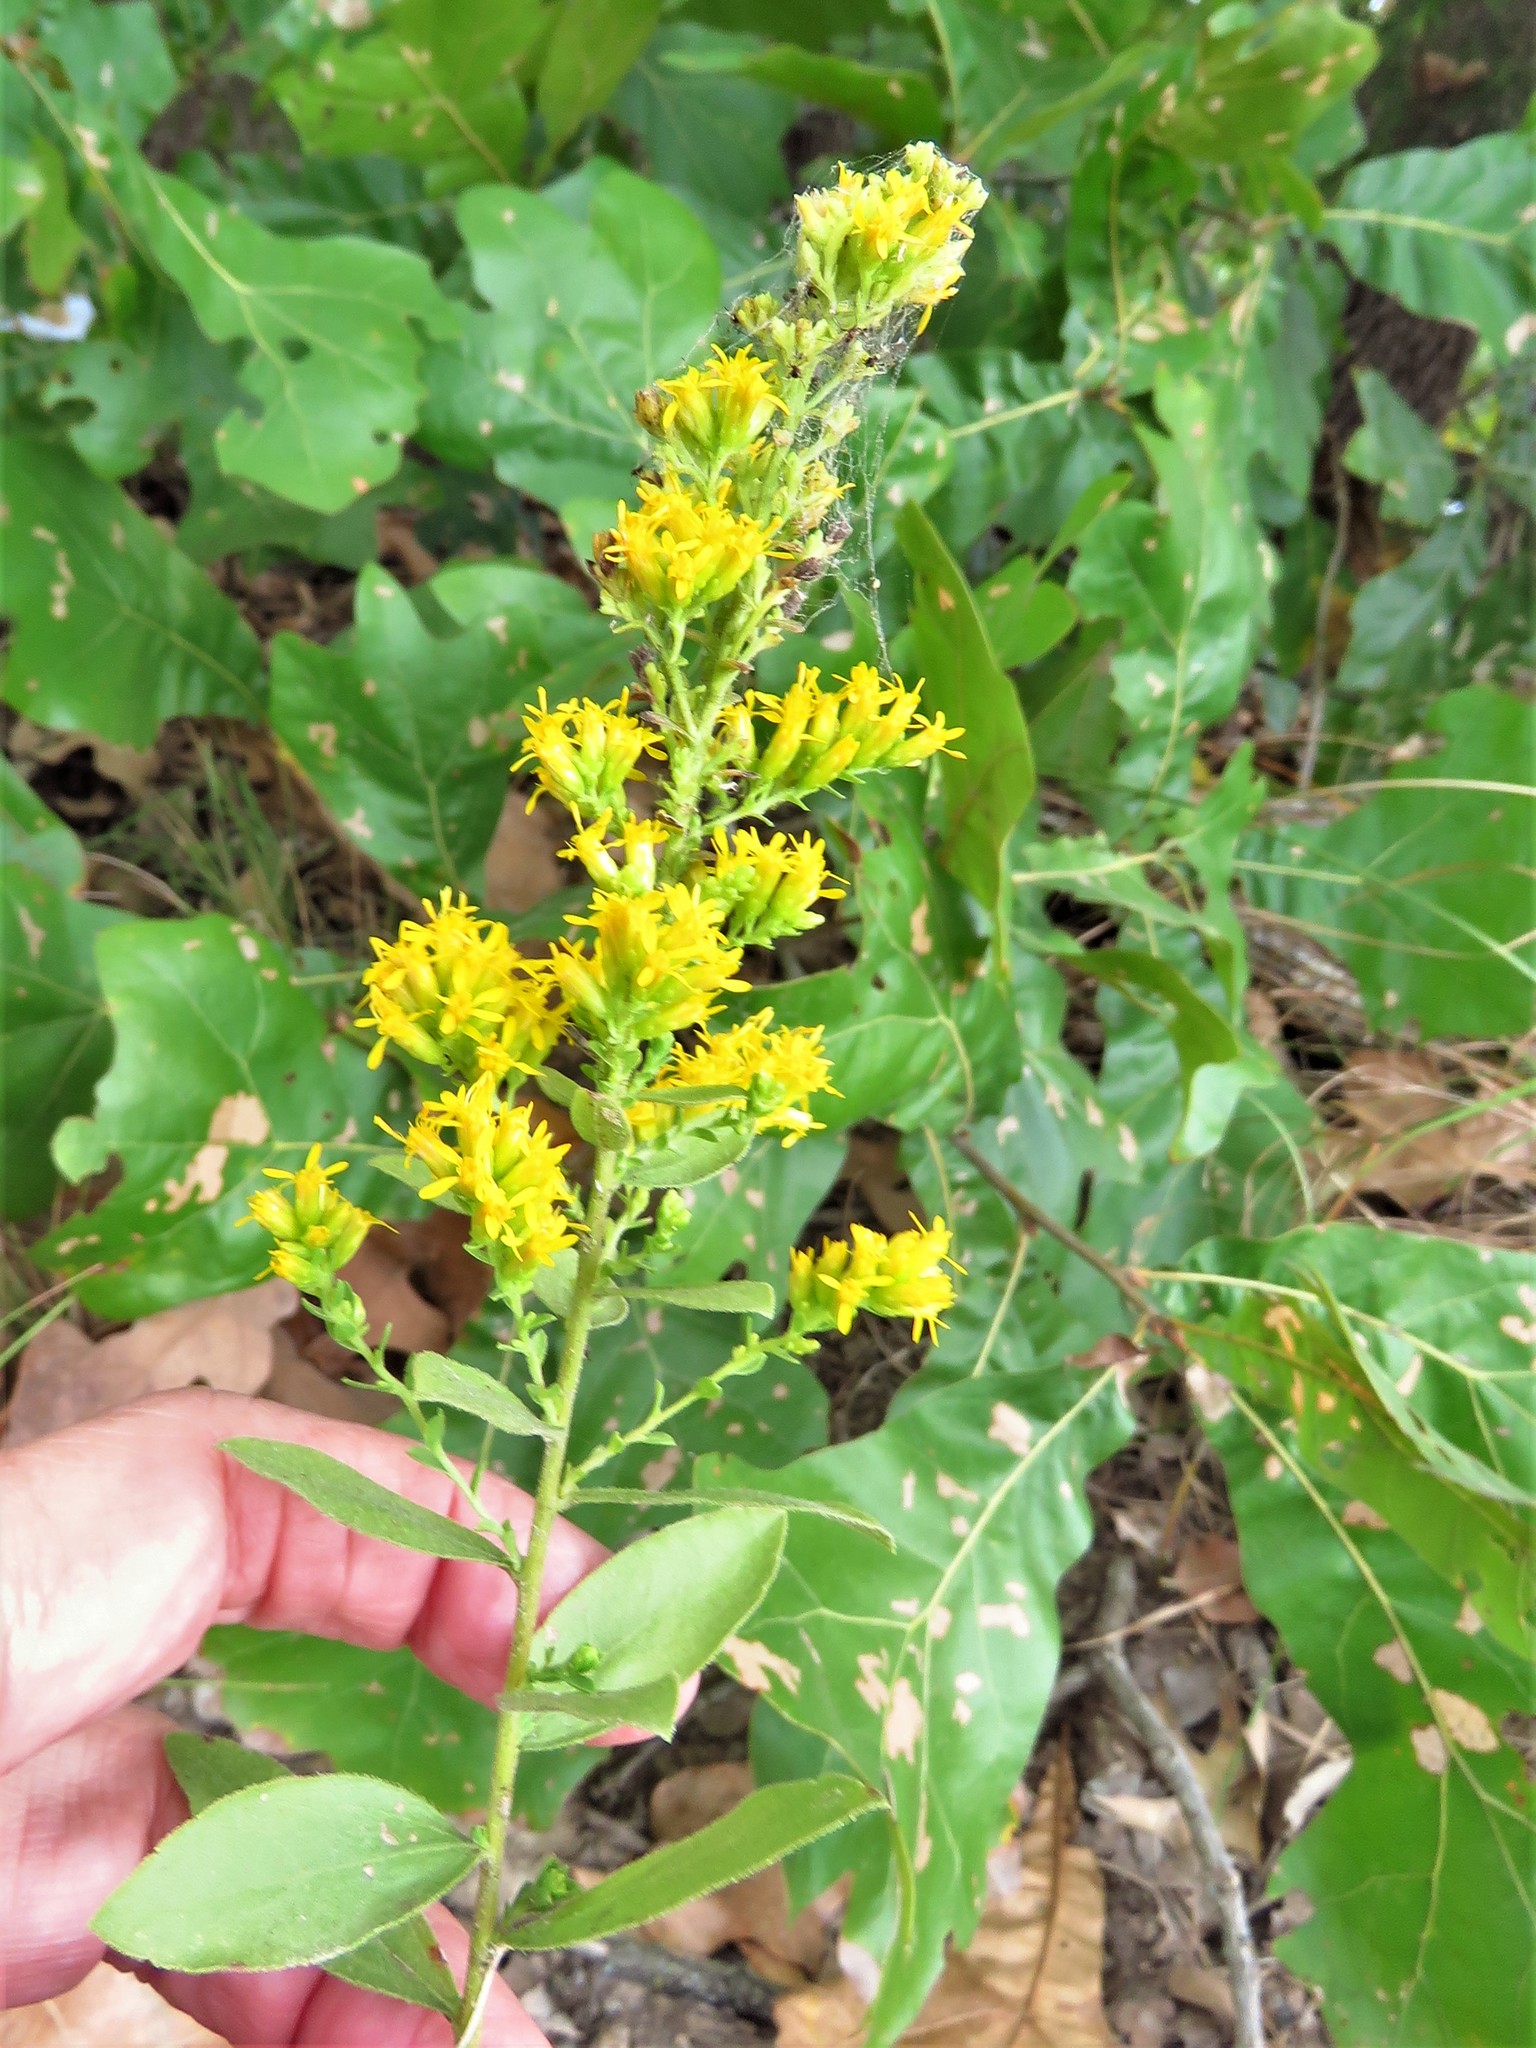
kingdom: Plantae
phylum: Tracheophyta
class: Magnoliopsida
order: Asterales
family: Asteraceae
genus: Solidago
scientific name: Solidago rigida
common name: Rigid goldenrod
